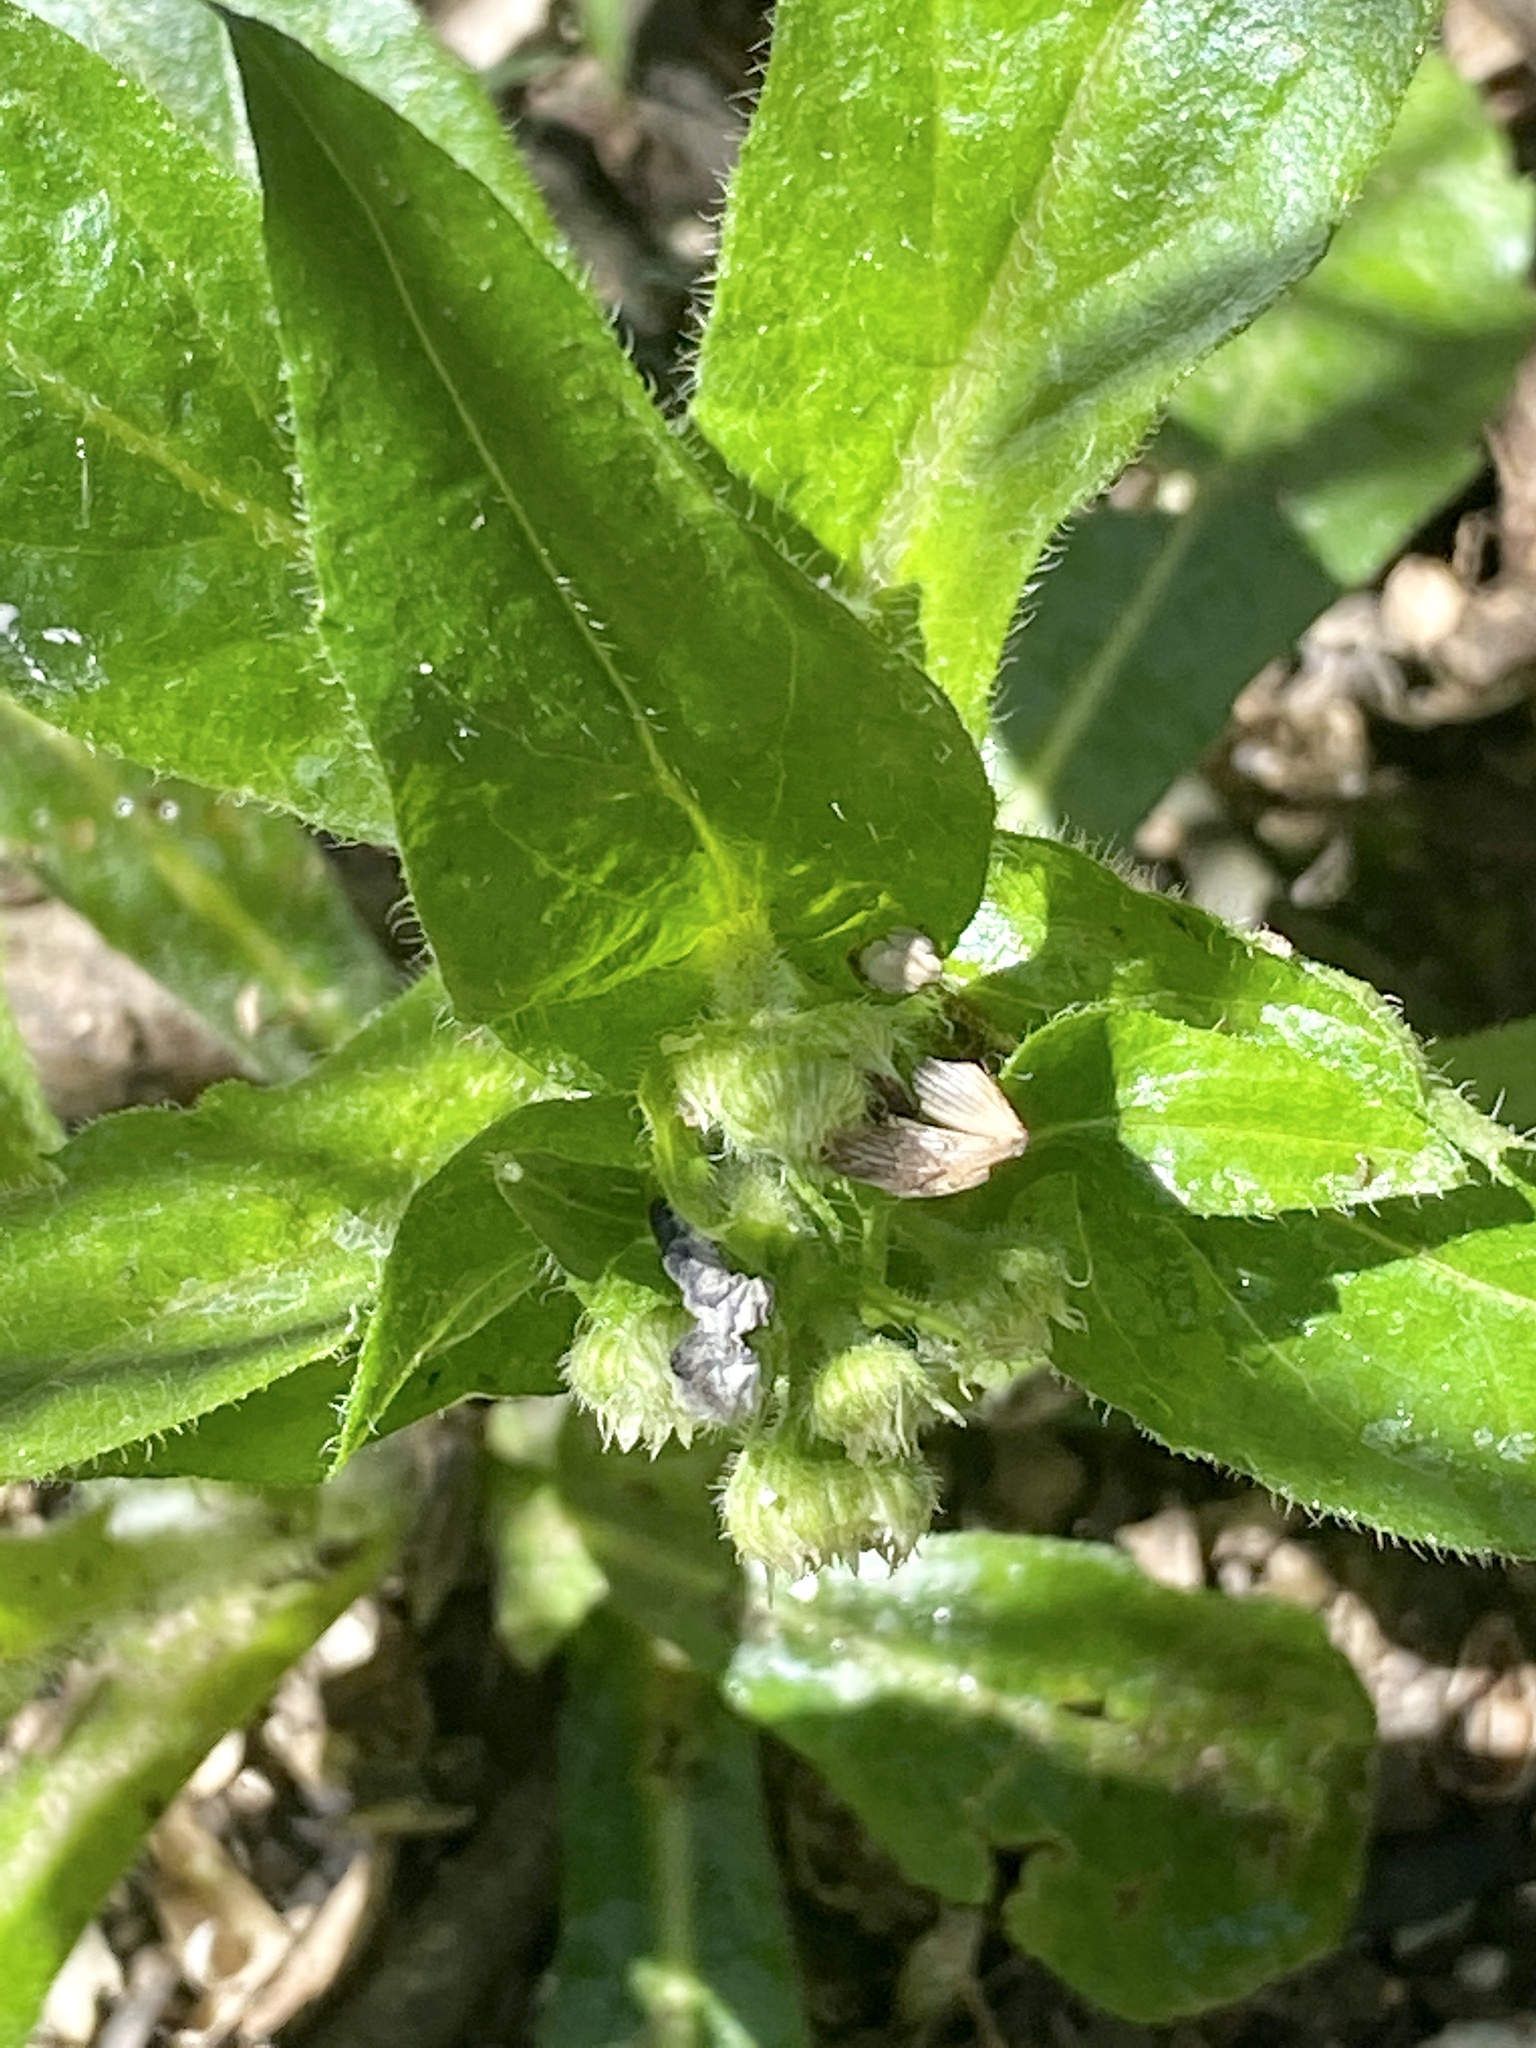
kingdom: Plantae
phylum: Tracheophyta
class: Magnoliopsida
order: Asterales
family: Asteraceae
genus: Erigeron
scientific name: Erigeron philadelphicus
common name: Robin's-plantain
